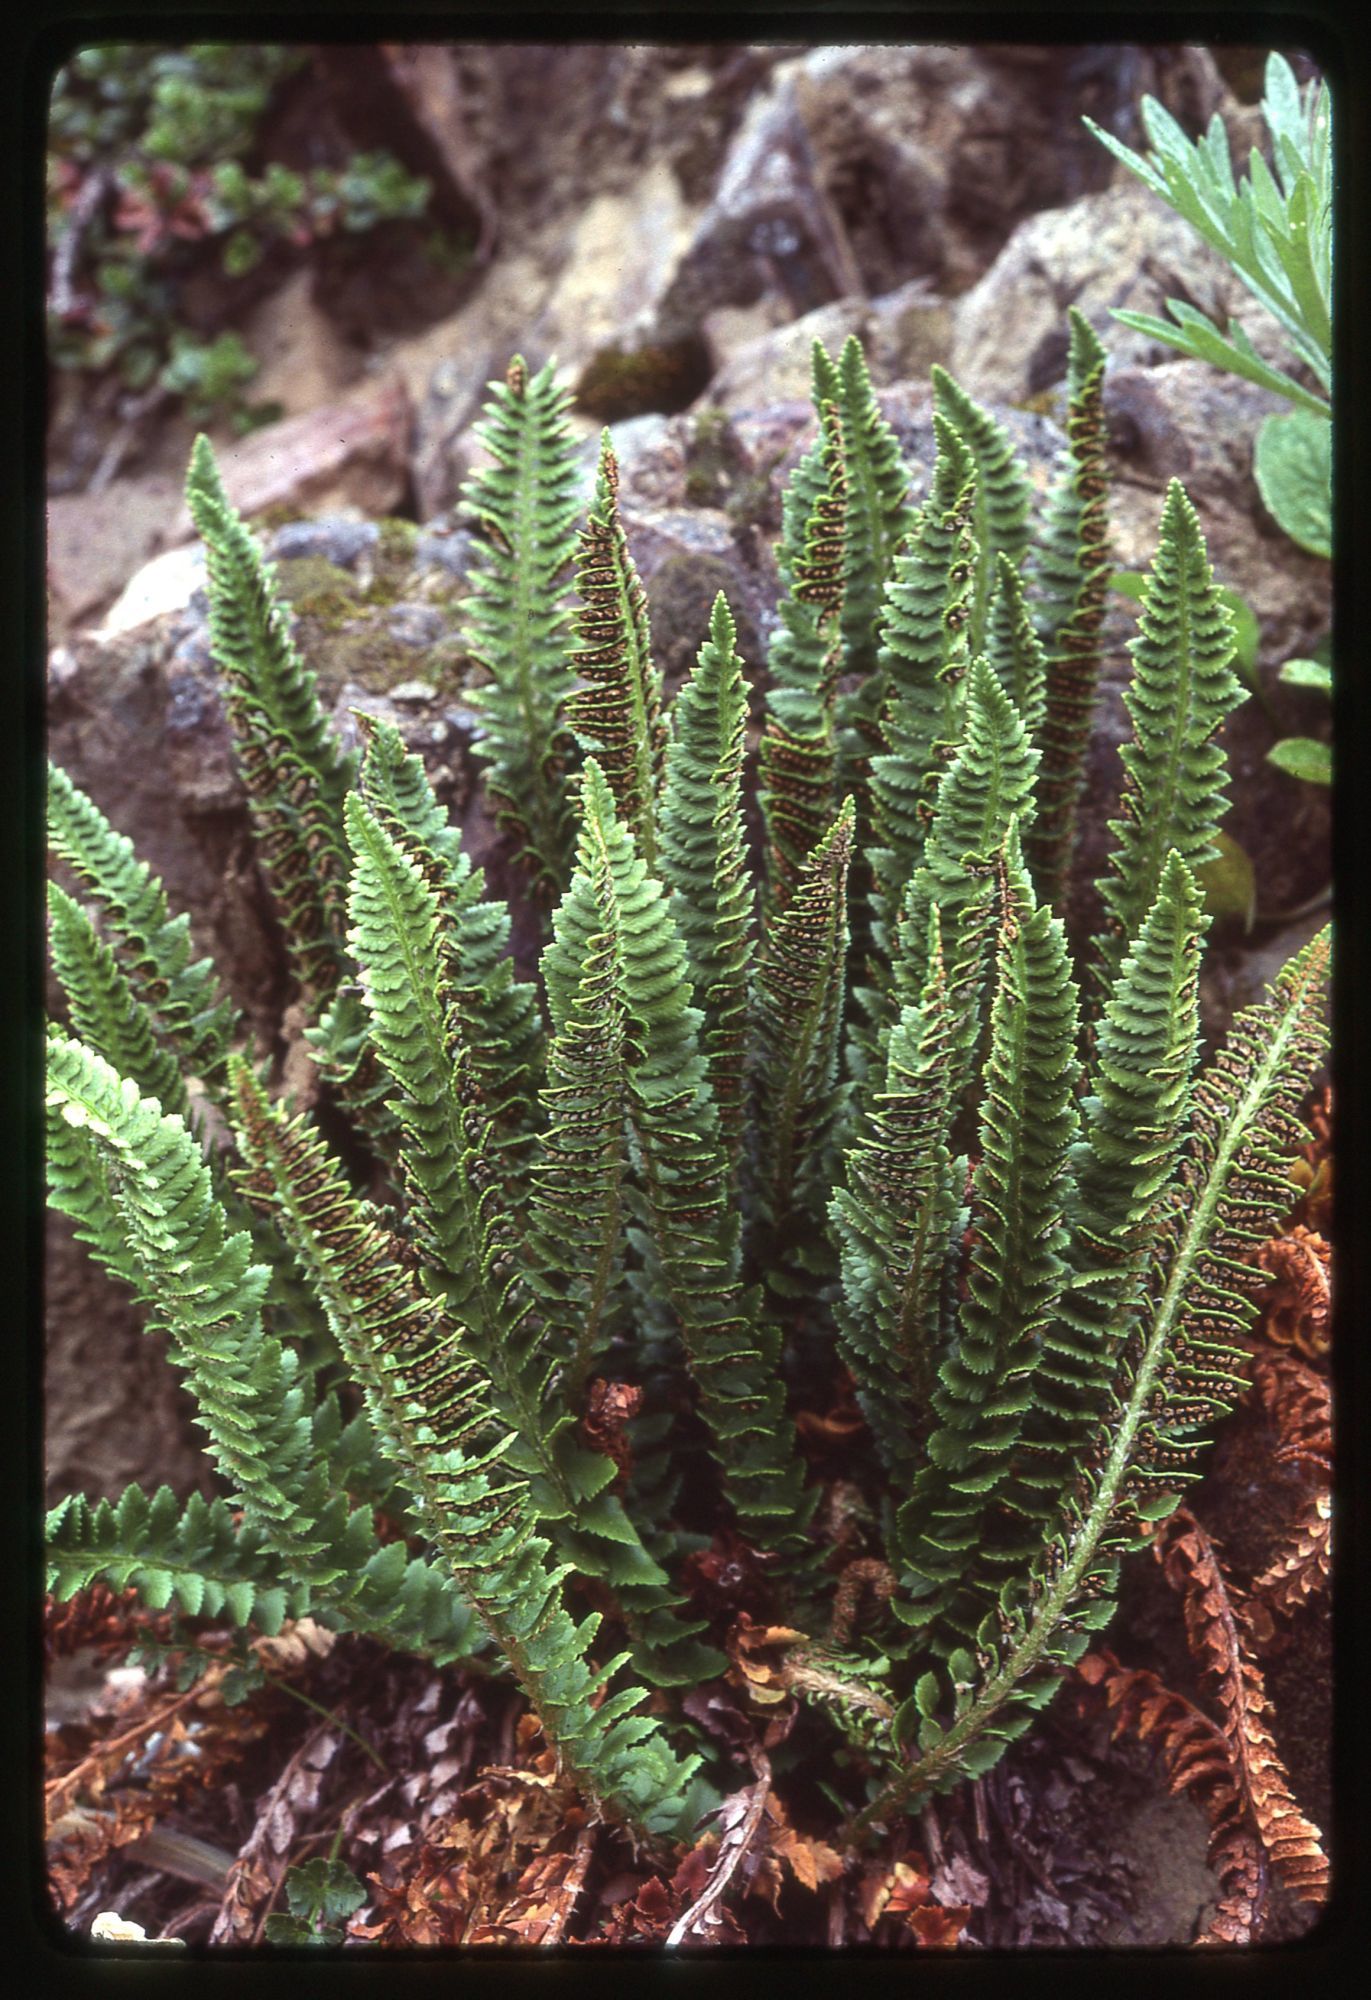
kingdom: Plantae
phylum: Tracheophyta
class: Polypodiopsida
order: Polypodiales
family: Dryopteridaceae
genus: Polystichum
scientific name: Polystichum kruckebergii
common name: Kruckeberg's holly fern
